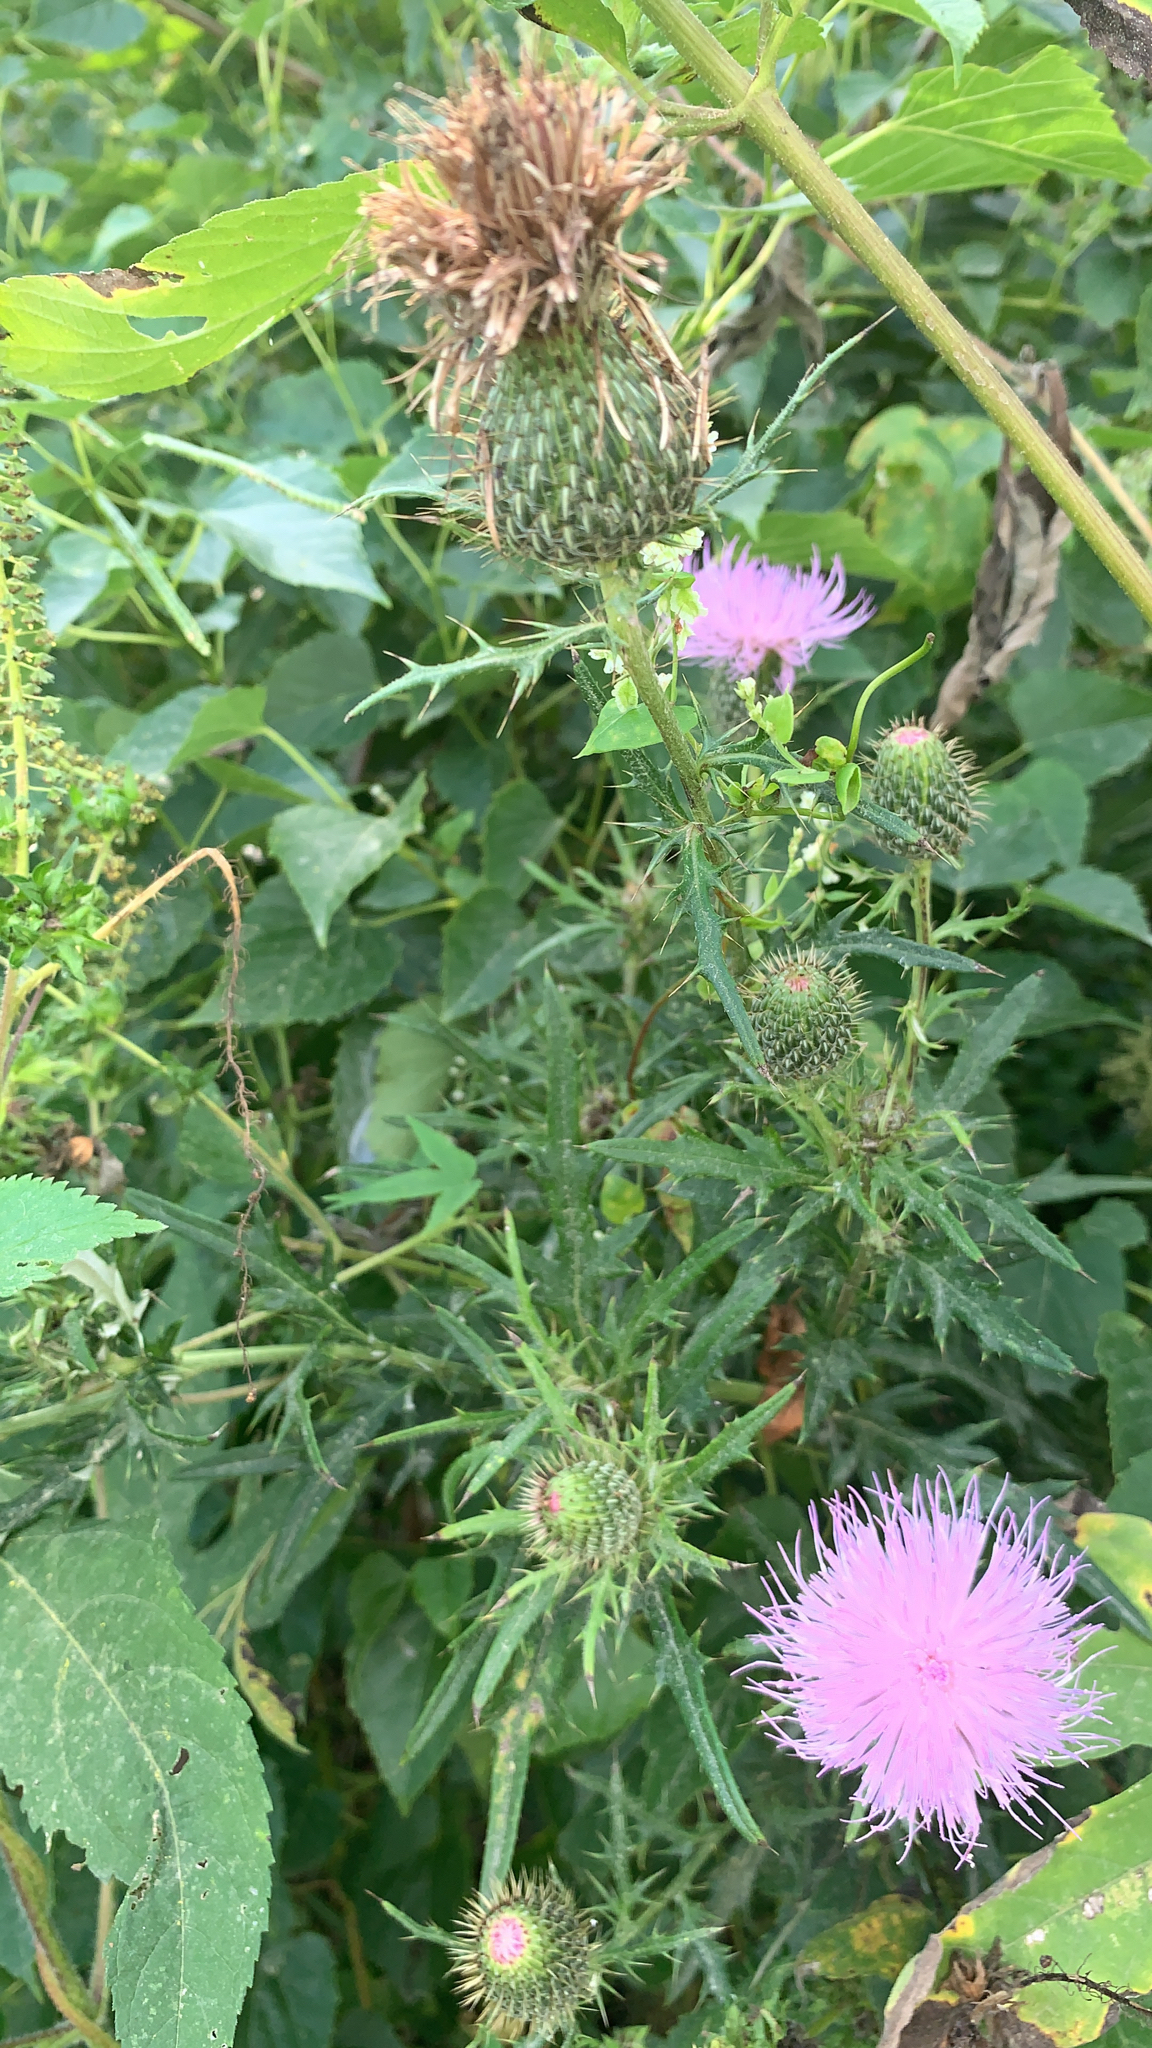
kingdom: Plantae
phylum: Tracheophyta
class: Magnoliopsida
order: Asterales
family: Asteraceae
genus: Cirsium
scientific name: Cirsium discolor
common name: Field thistle
